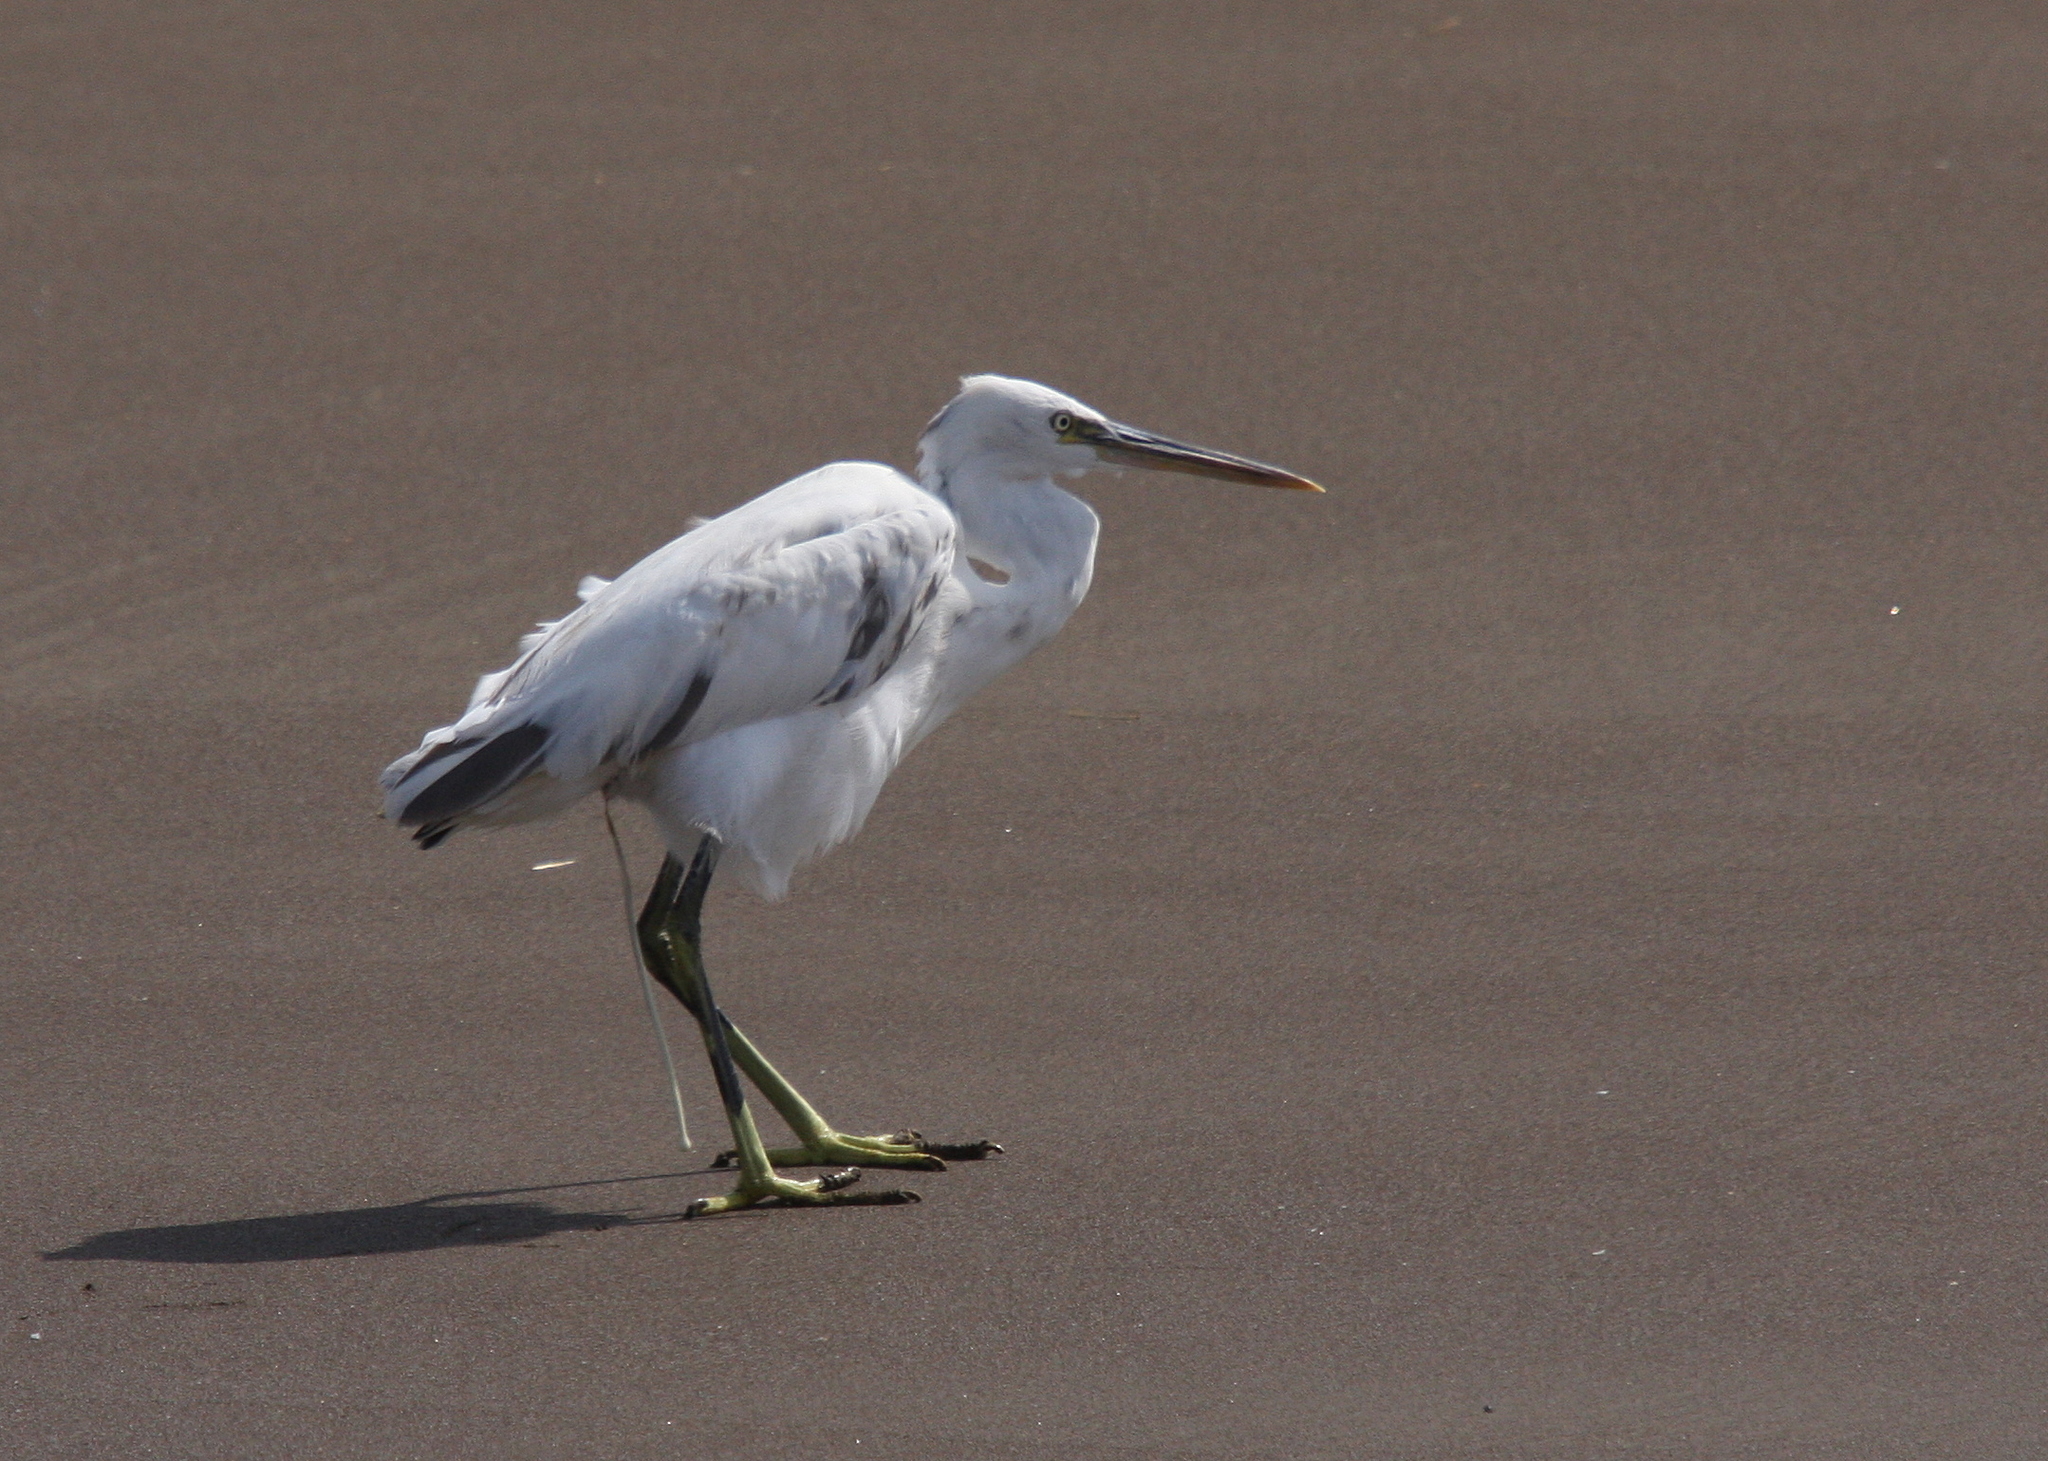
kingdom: Animalia
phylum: Chordata
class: Aves
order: Pelecaniformes
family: Ardeidae
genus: Egretta
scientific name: Egretta gularis
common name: Western reef-heron
